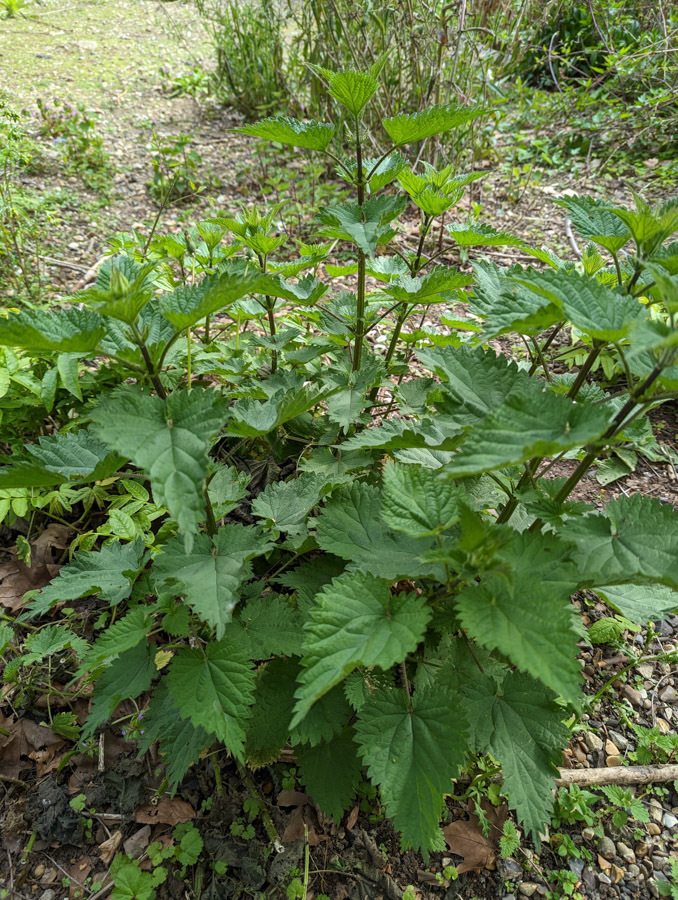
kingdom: Plantae
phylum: Tracheophyta
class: Magnoliopsida
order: Rosales
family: Urticaceae
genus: Urtica
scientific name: Urtica dioica
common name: Common nettle
